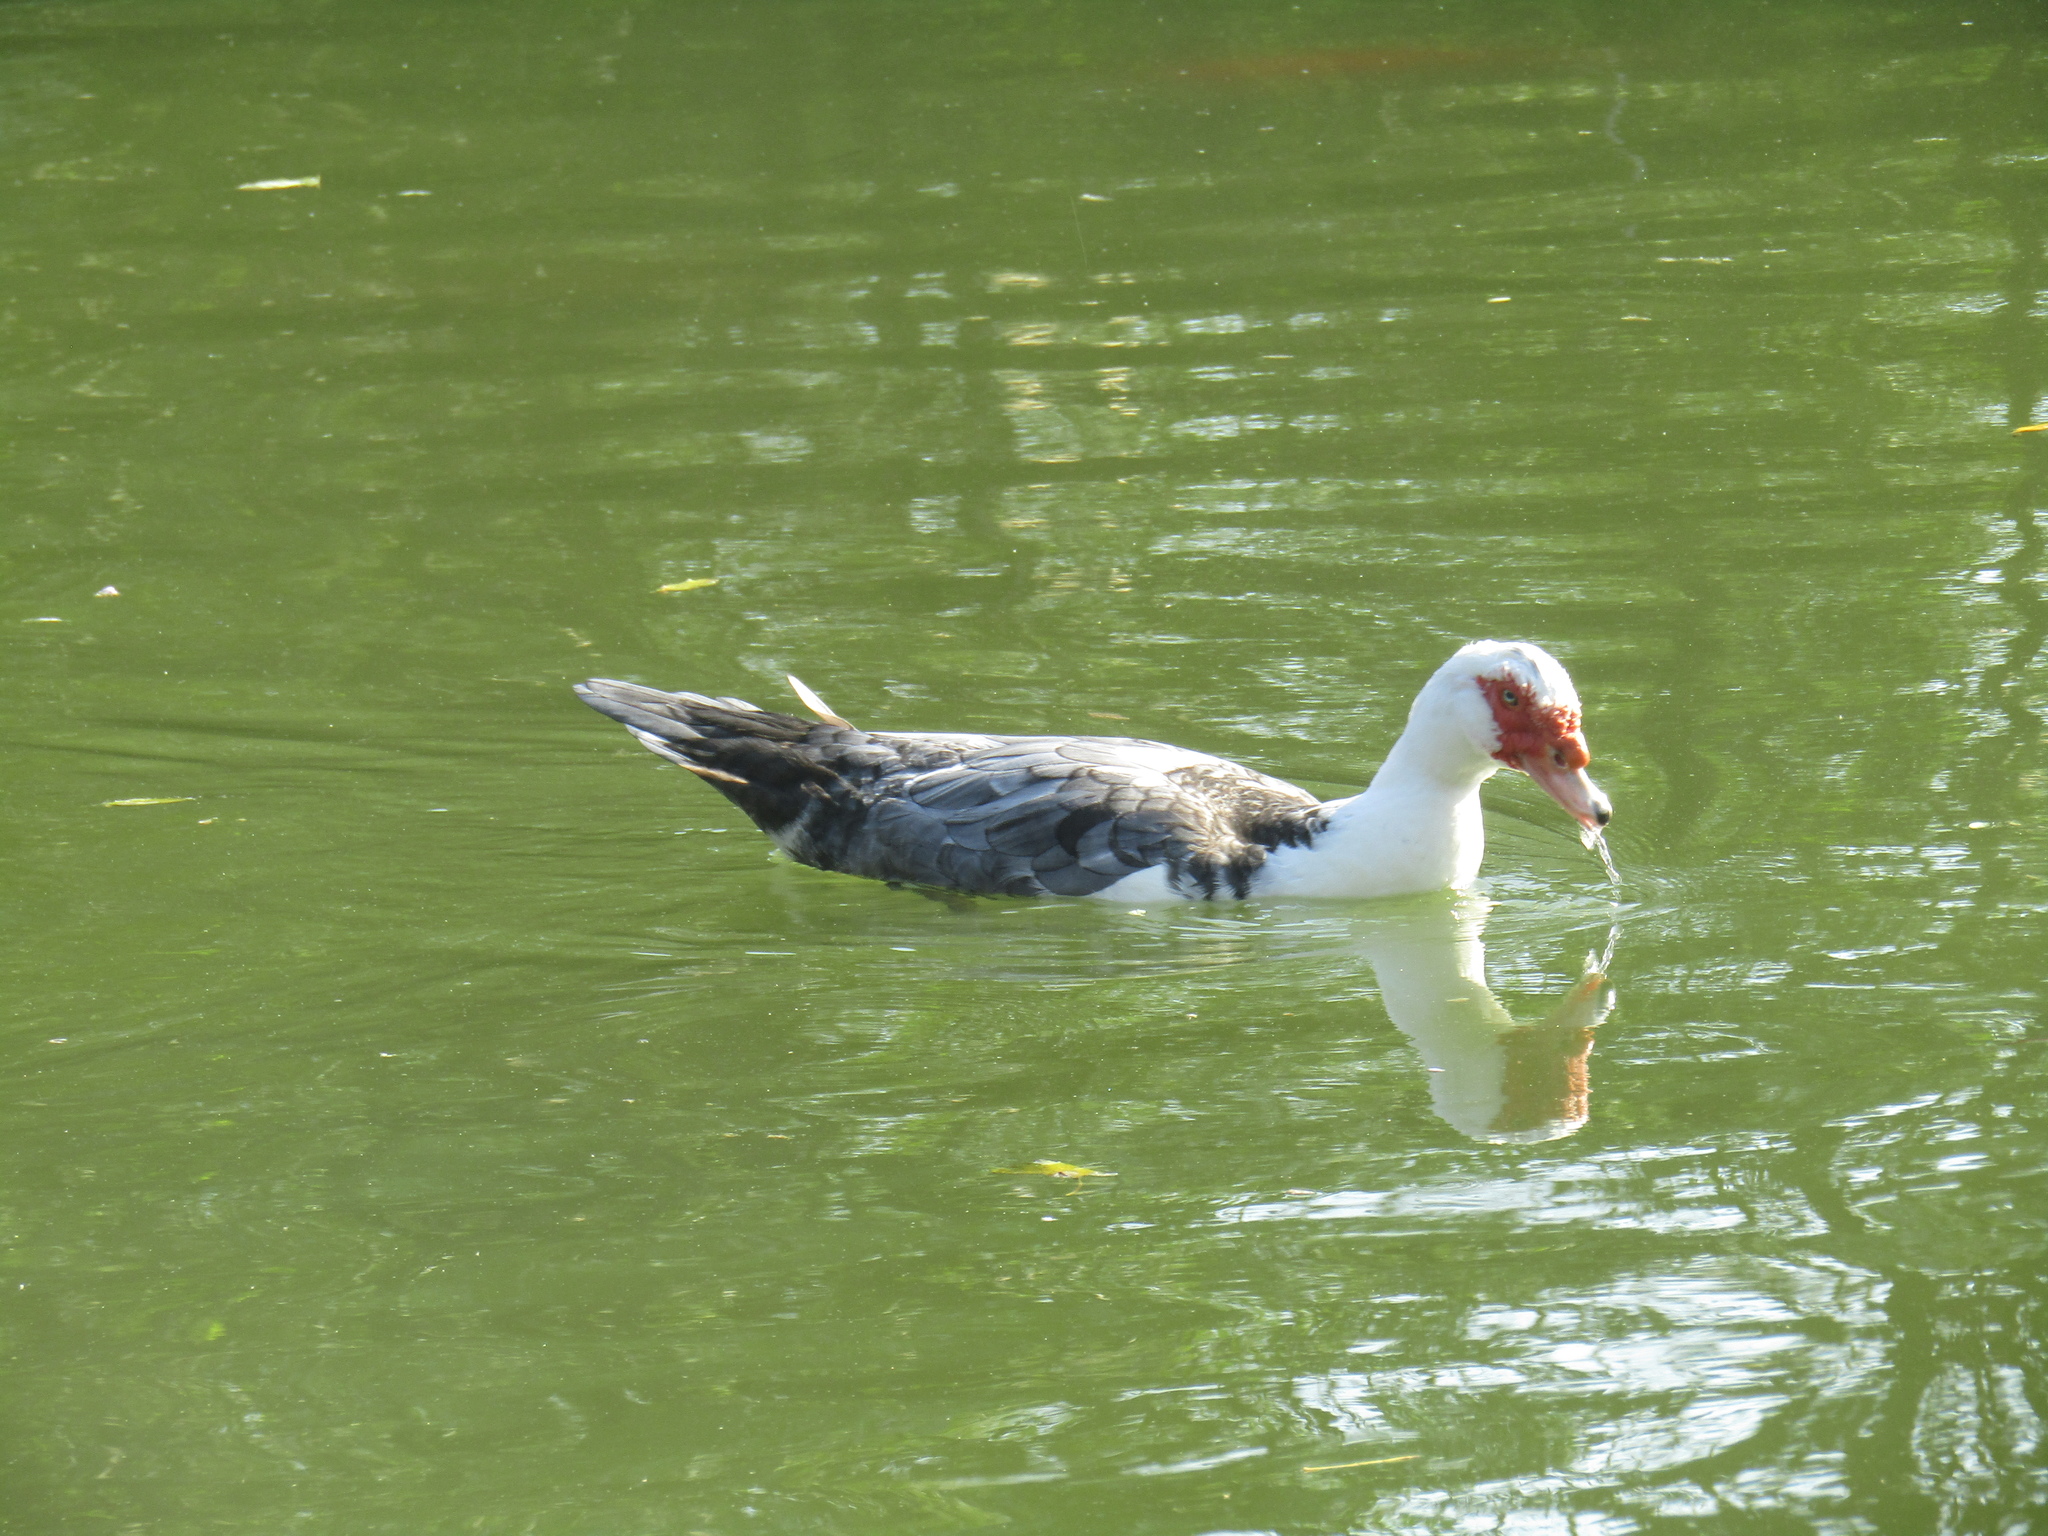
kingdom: Animalia
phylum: Chordata
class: Aves
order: Anseriformes
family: Anatidae
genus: Cairina
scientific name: Cairina moschata
